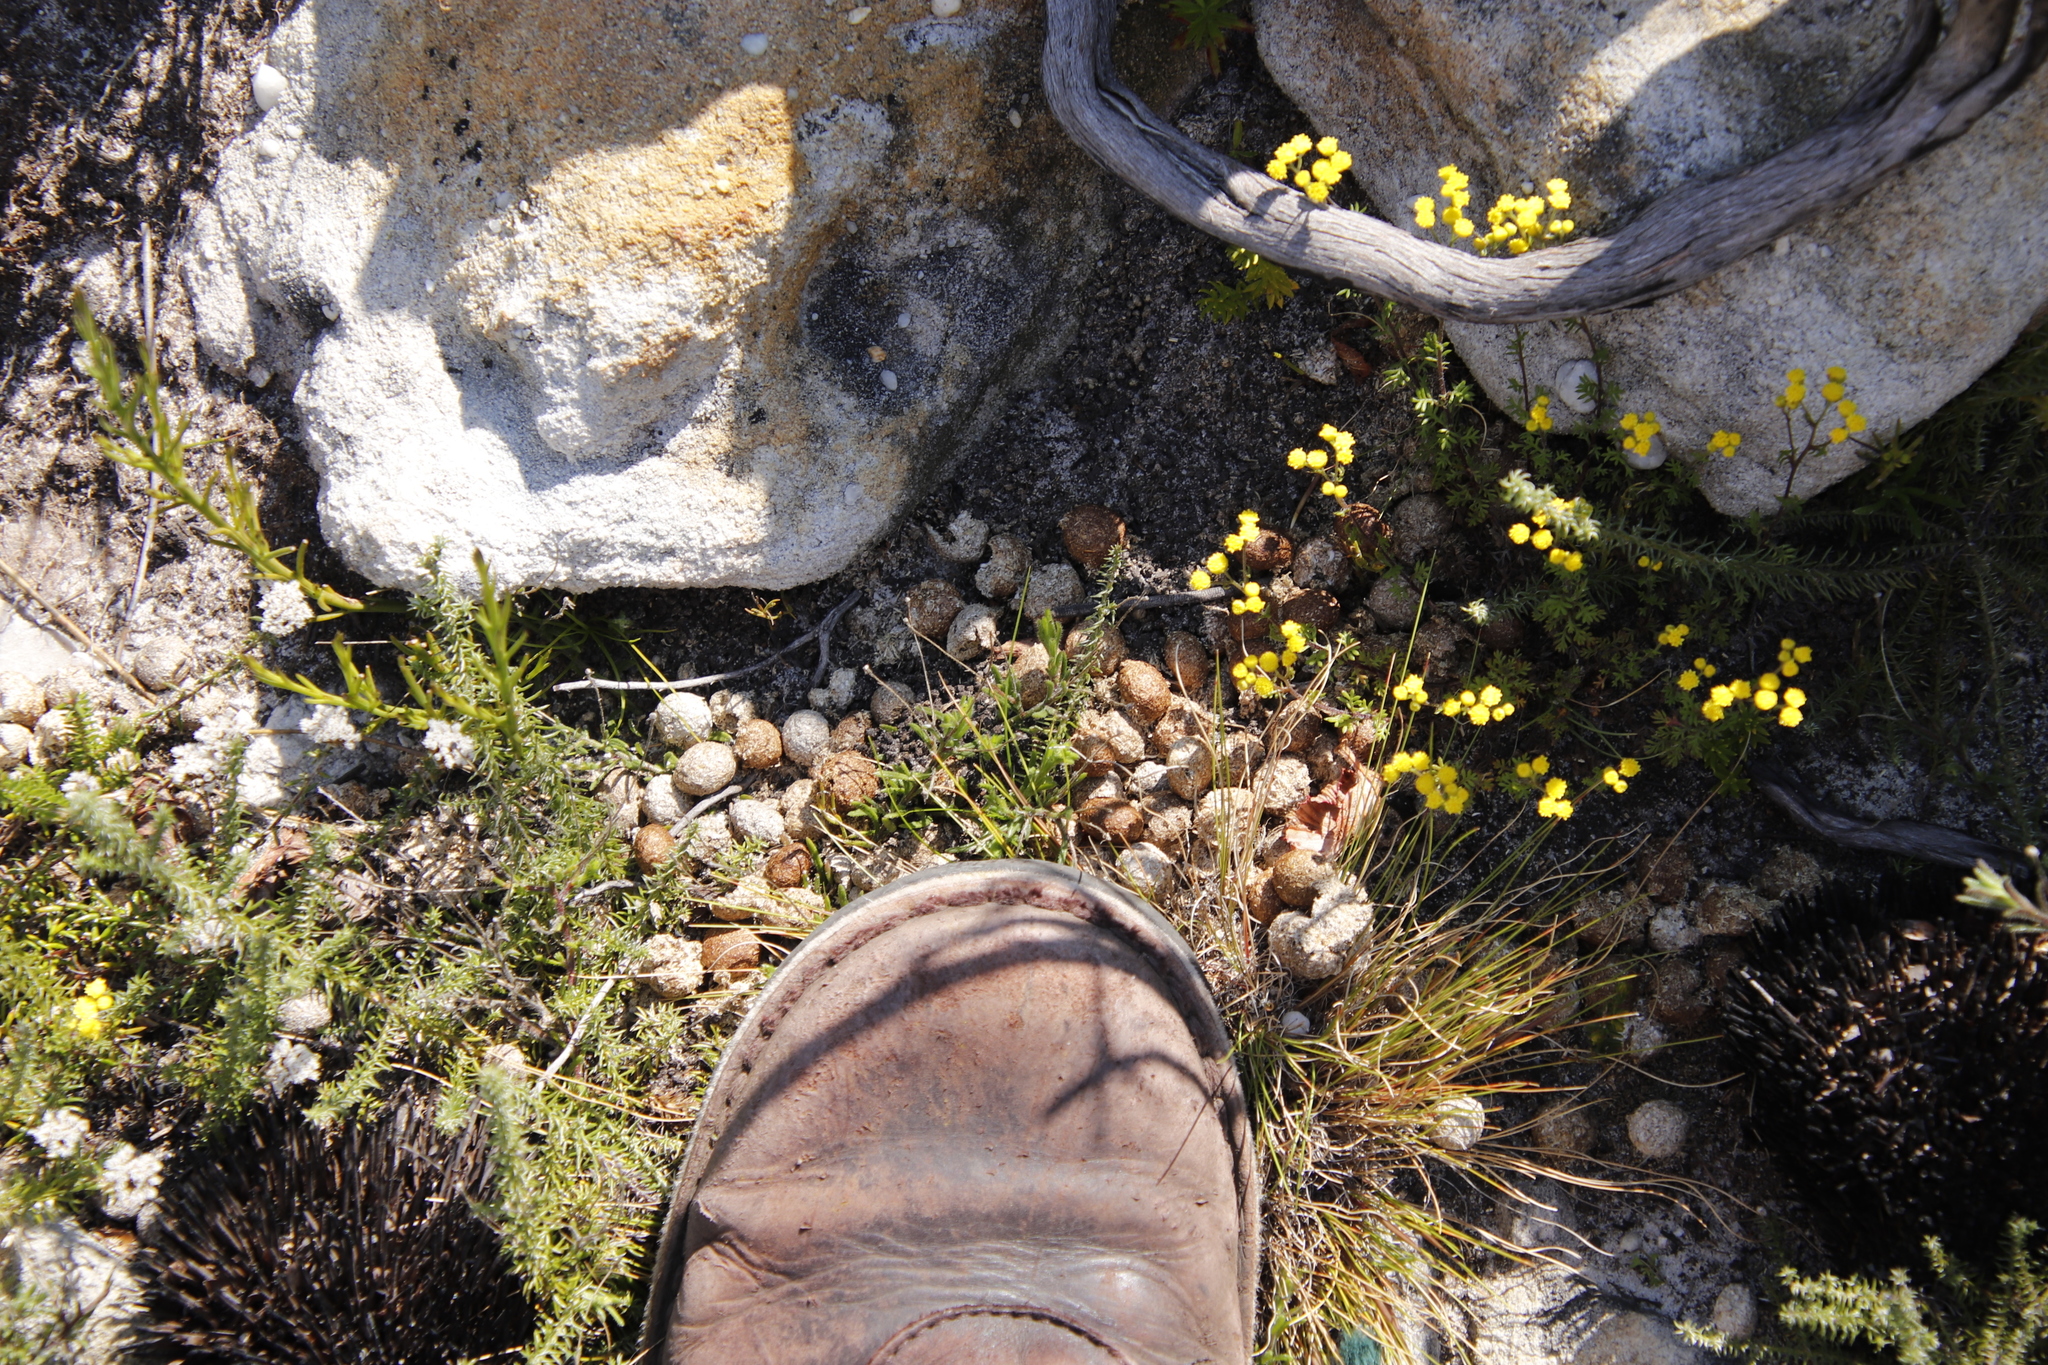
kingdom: Animalia
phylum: Chordata
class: Mammalia
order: Lagomorpha
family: Leporidae
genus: Pronolagus
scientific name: Pronolagus saundersiae
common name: Hewitt's red rock hare
